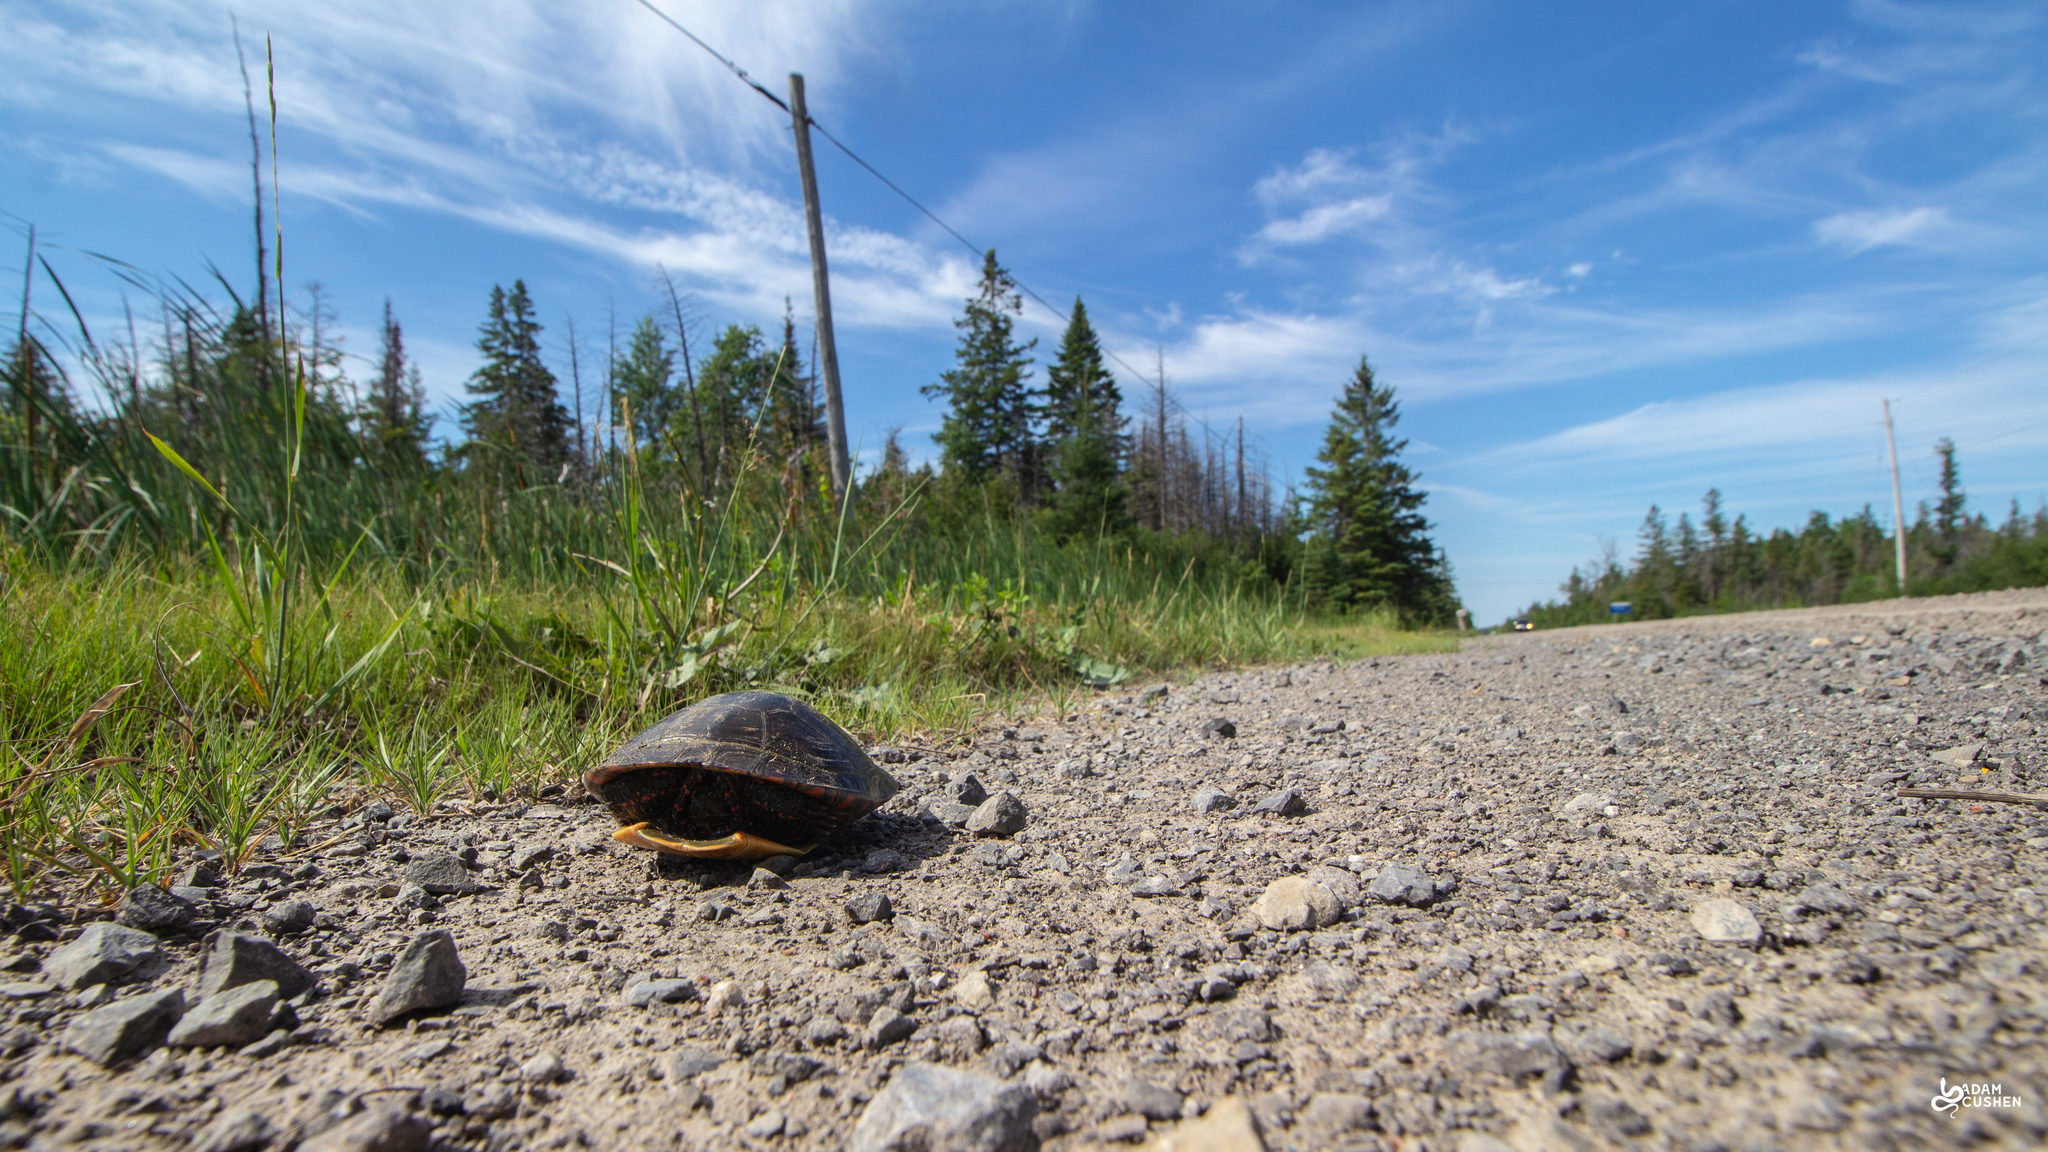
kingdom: Animalia
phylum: Chordata
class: Testudines
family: Emydidae
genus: Chrysemys
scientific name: Chrysemys picta
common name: Painted turtle
